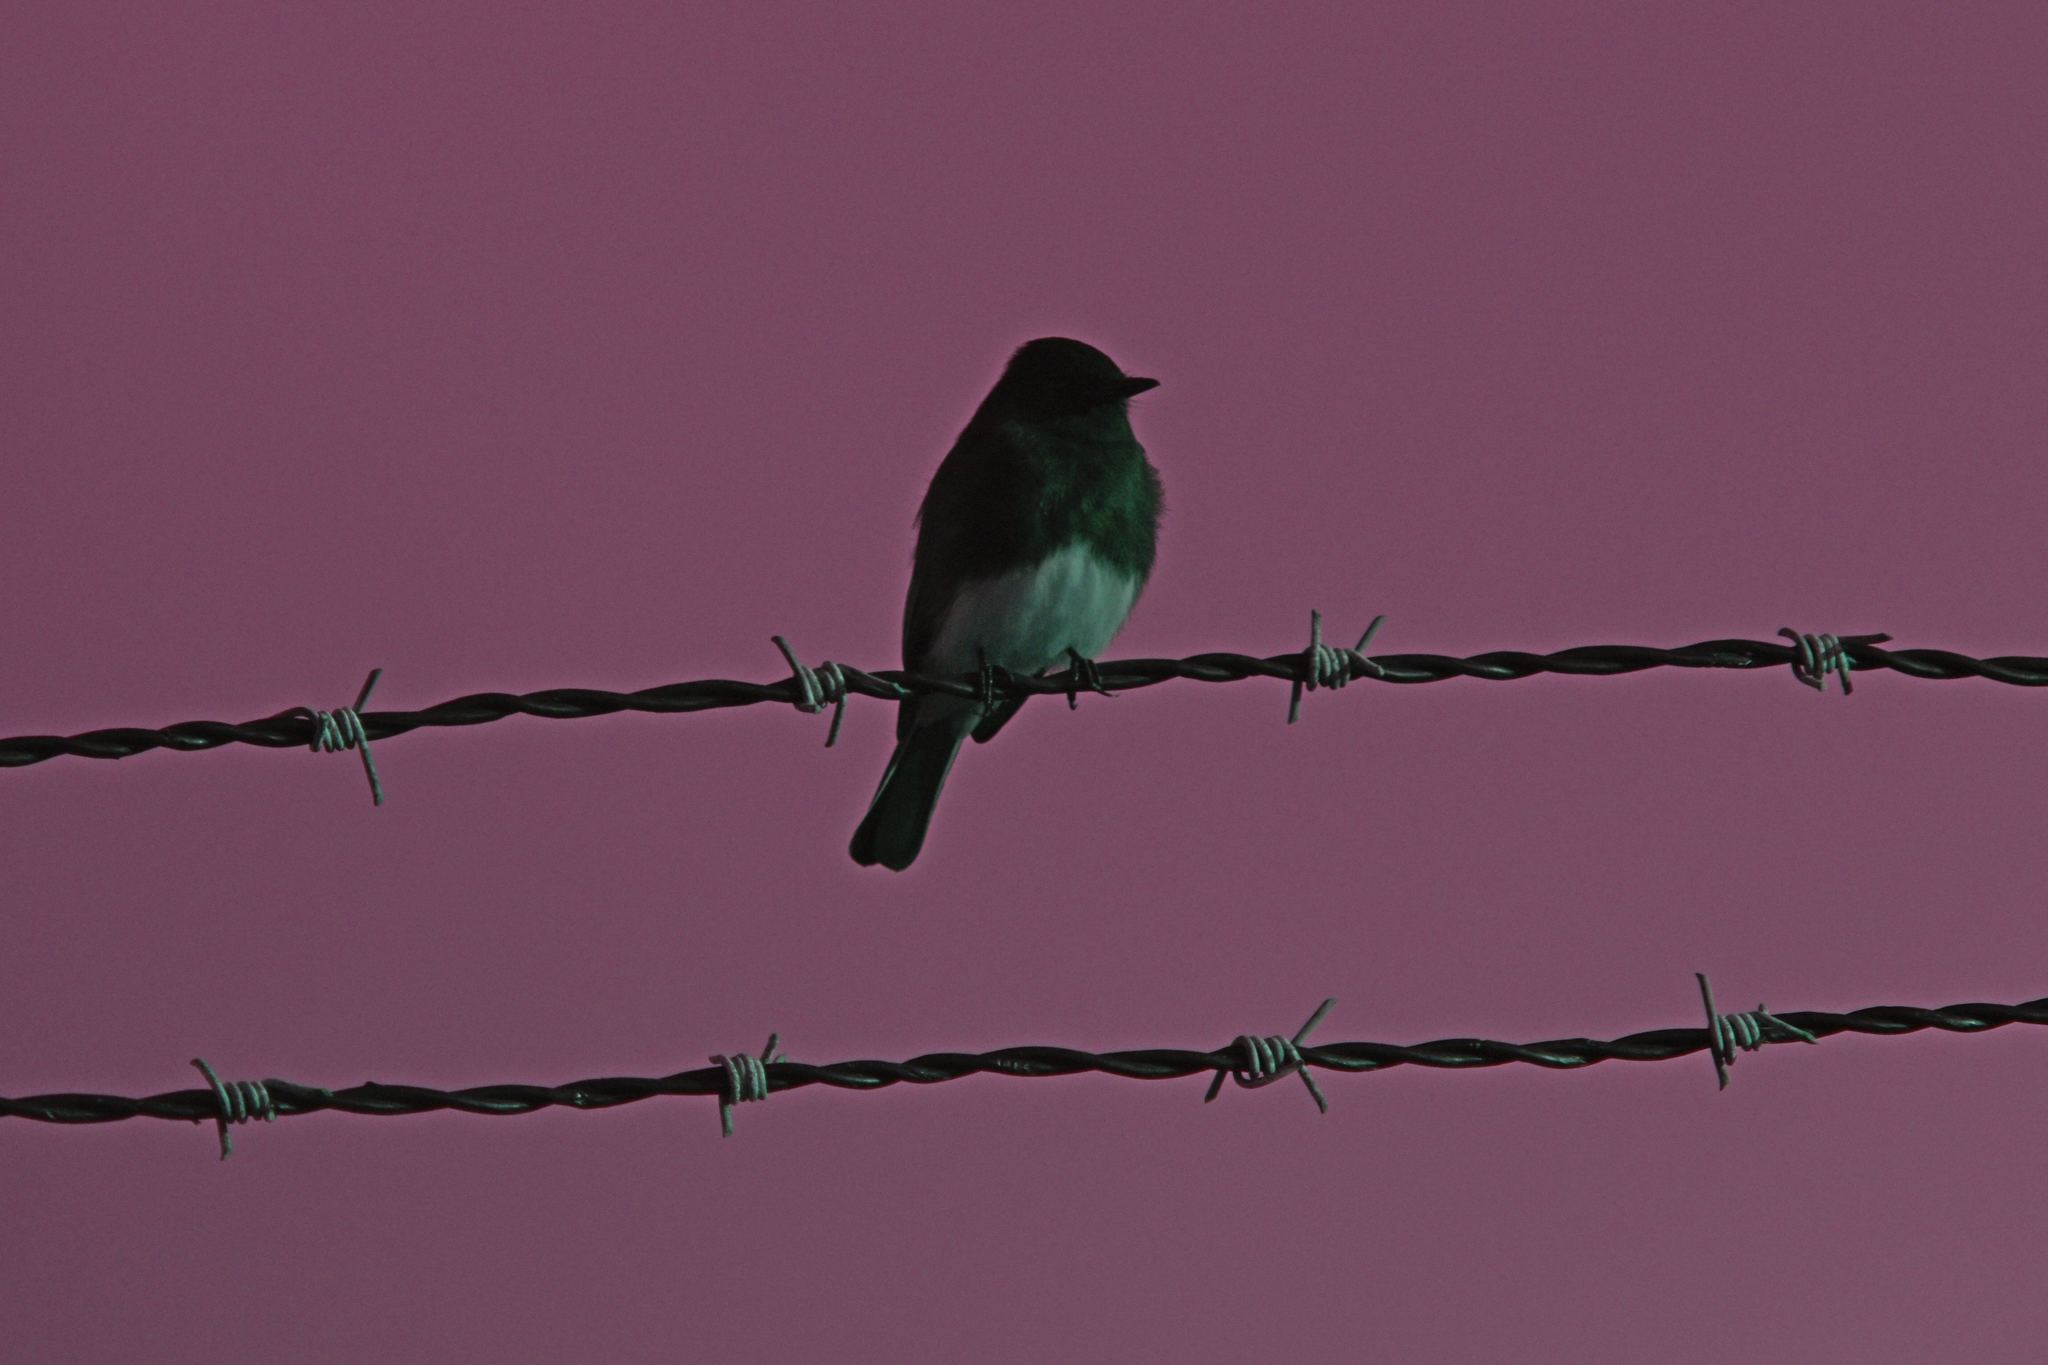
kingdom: Animalia
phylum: Chordata
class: Aves
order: Passeriformes
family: Tyrannidae
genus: Sayornis
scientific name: Sayornis nigricans
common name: Black phoebe
